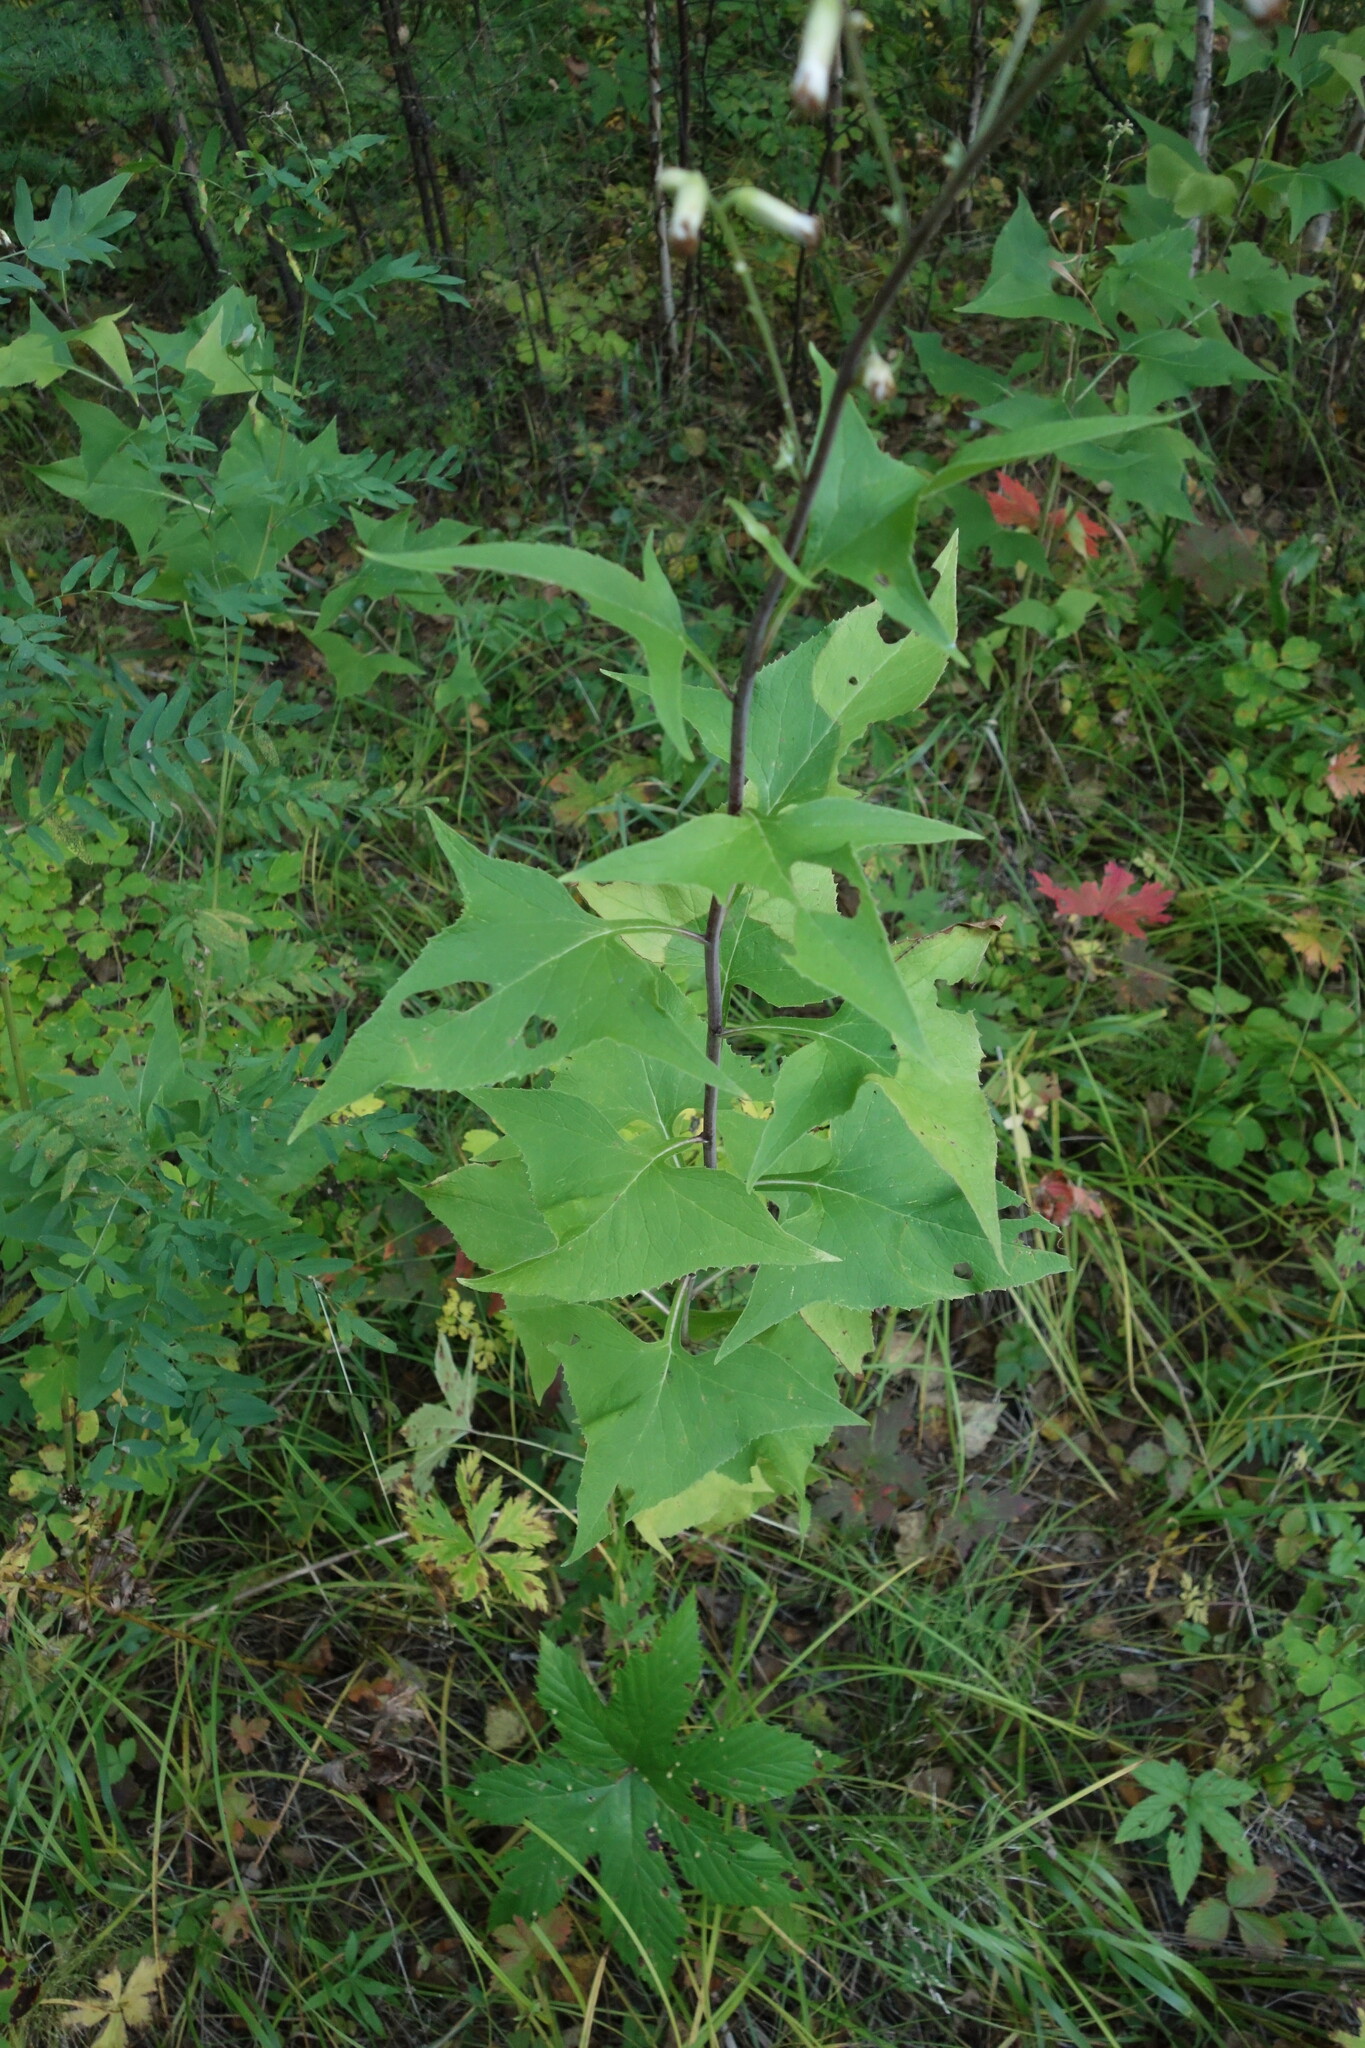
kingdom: Plantae
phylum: Tracheophyta
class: Magnoliopsida
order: Asterales
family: Asteraceae
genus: Parasenecio
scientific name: Parasenecio hastatus
